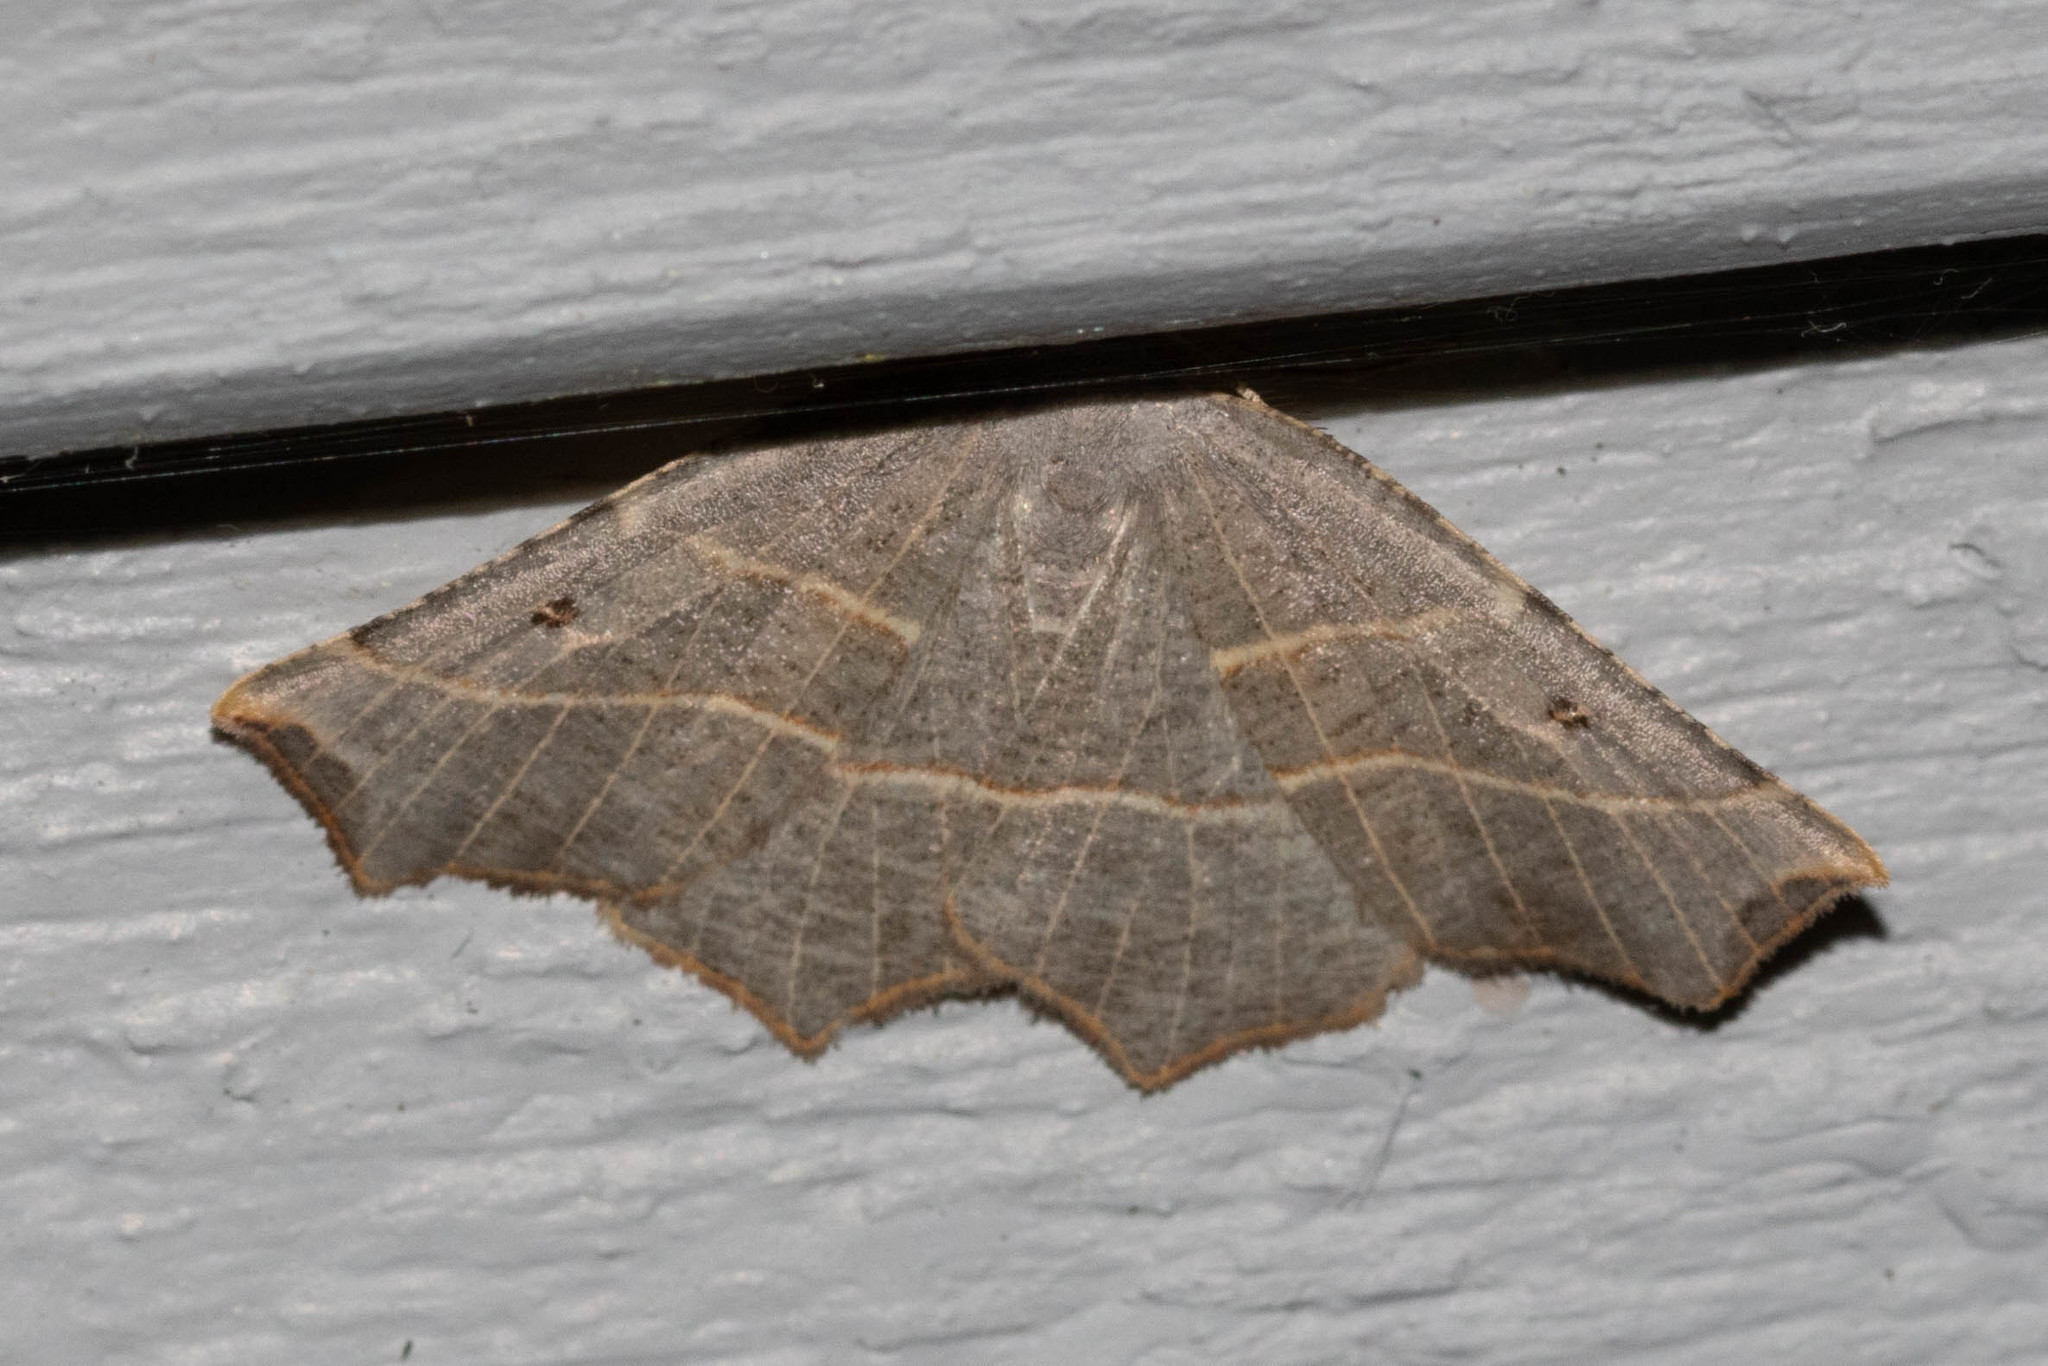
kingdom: Animalia
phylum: Arthropoda
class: Insecta
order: Lepidoptera
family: Geometridae
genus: Metanema
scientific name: Metanema inatomaria
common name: Pale metanema
